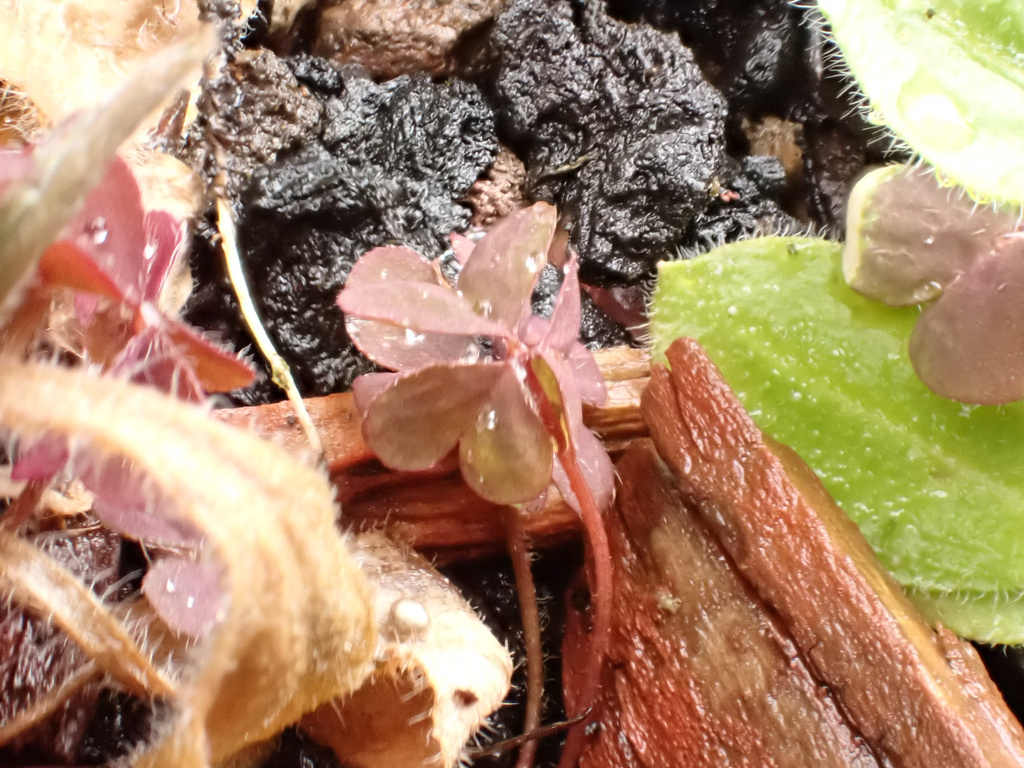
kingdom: Plantae
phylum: Tracheophyta
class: Magnoliopsida
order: Oxalidales
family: Oxalidaceae
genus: Oxalis
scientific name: Oxalis corniculata
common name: Procumbent yellow-sorrel
